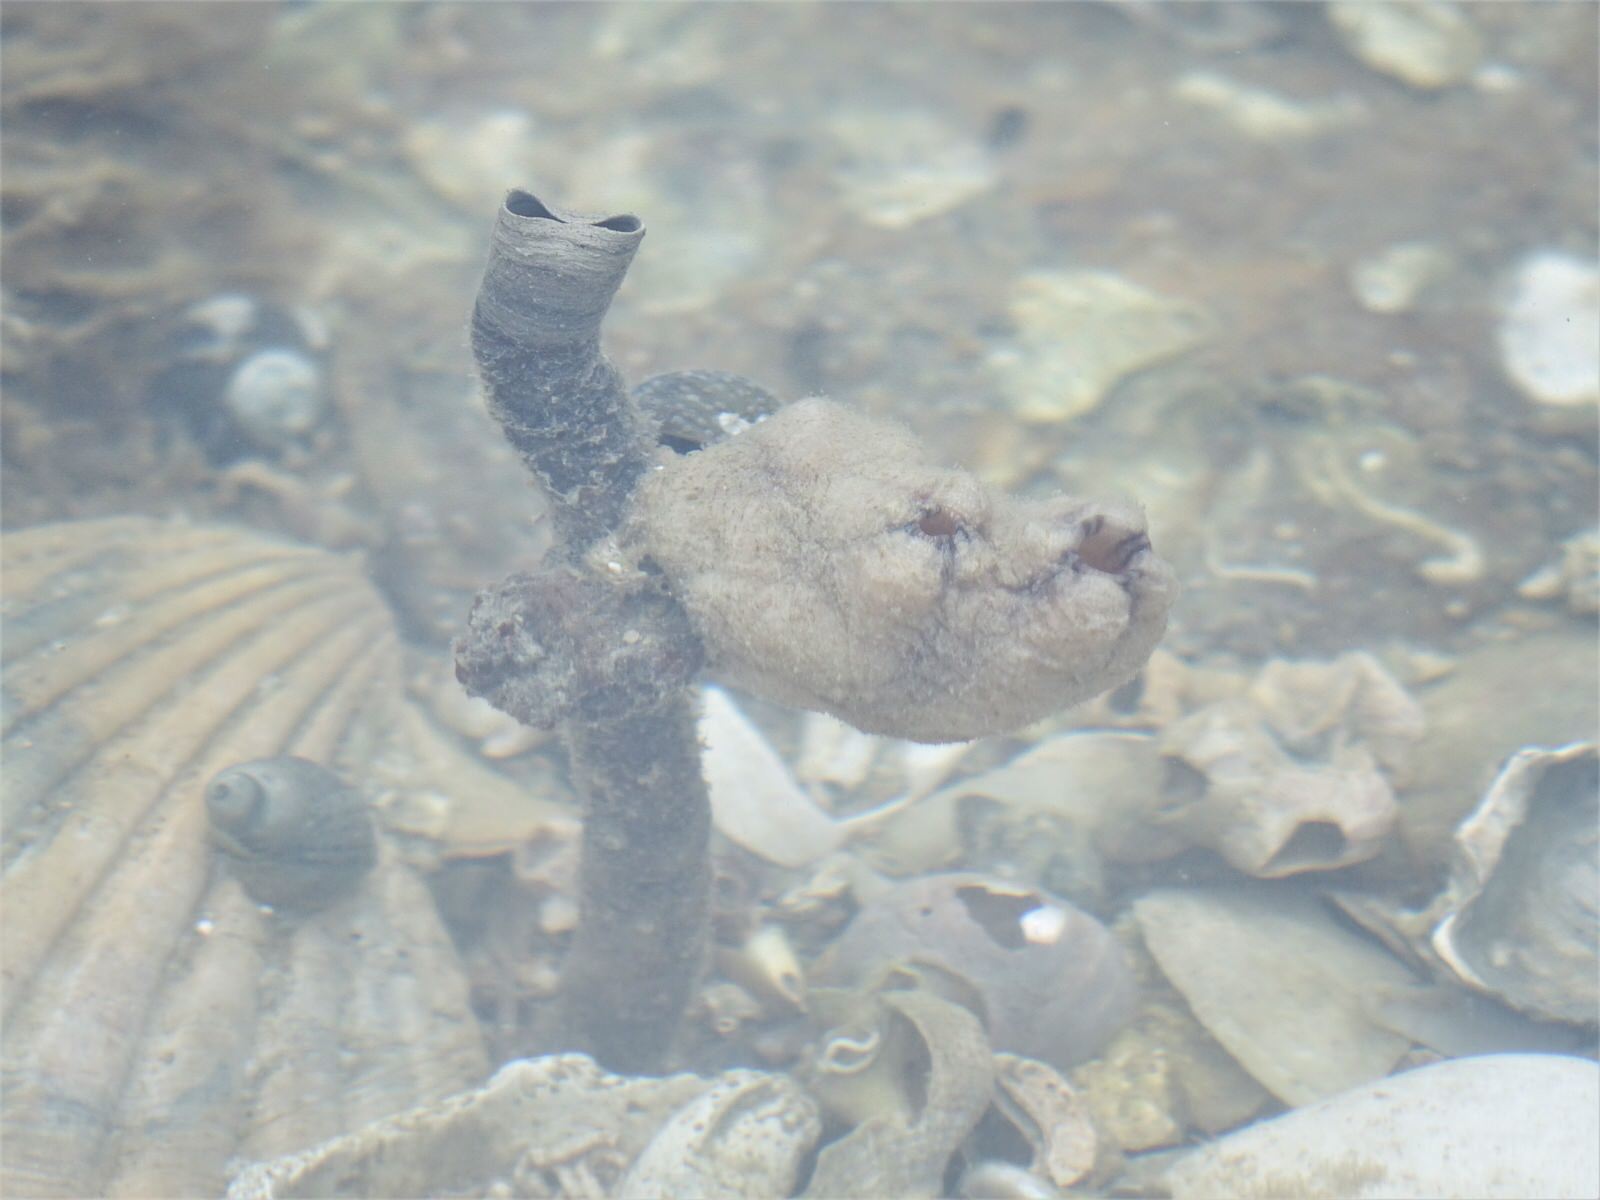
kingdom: Animalia
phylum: Chordata
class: Ascidiacea
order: Stolidobranchia
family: Styelidae
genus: Styela
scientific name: Styela plicata
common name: Pleated tunicate
